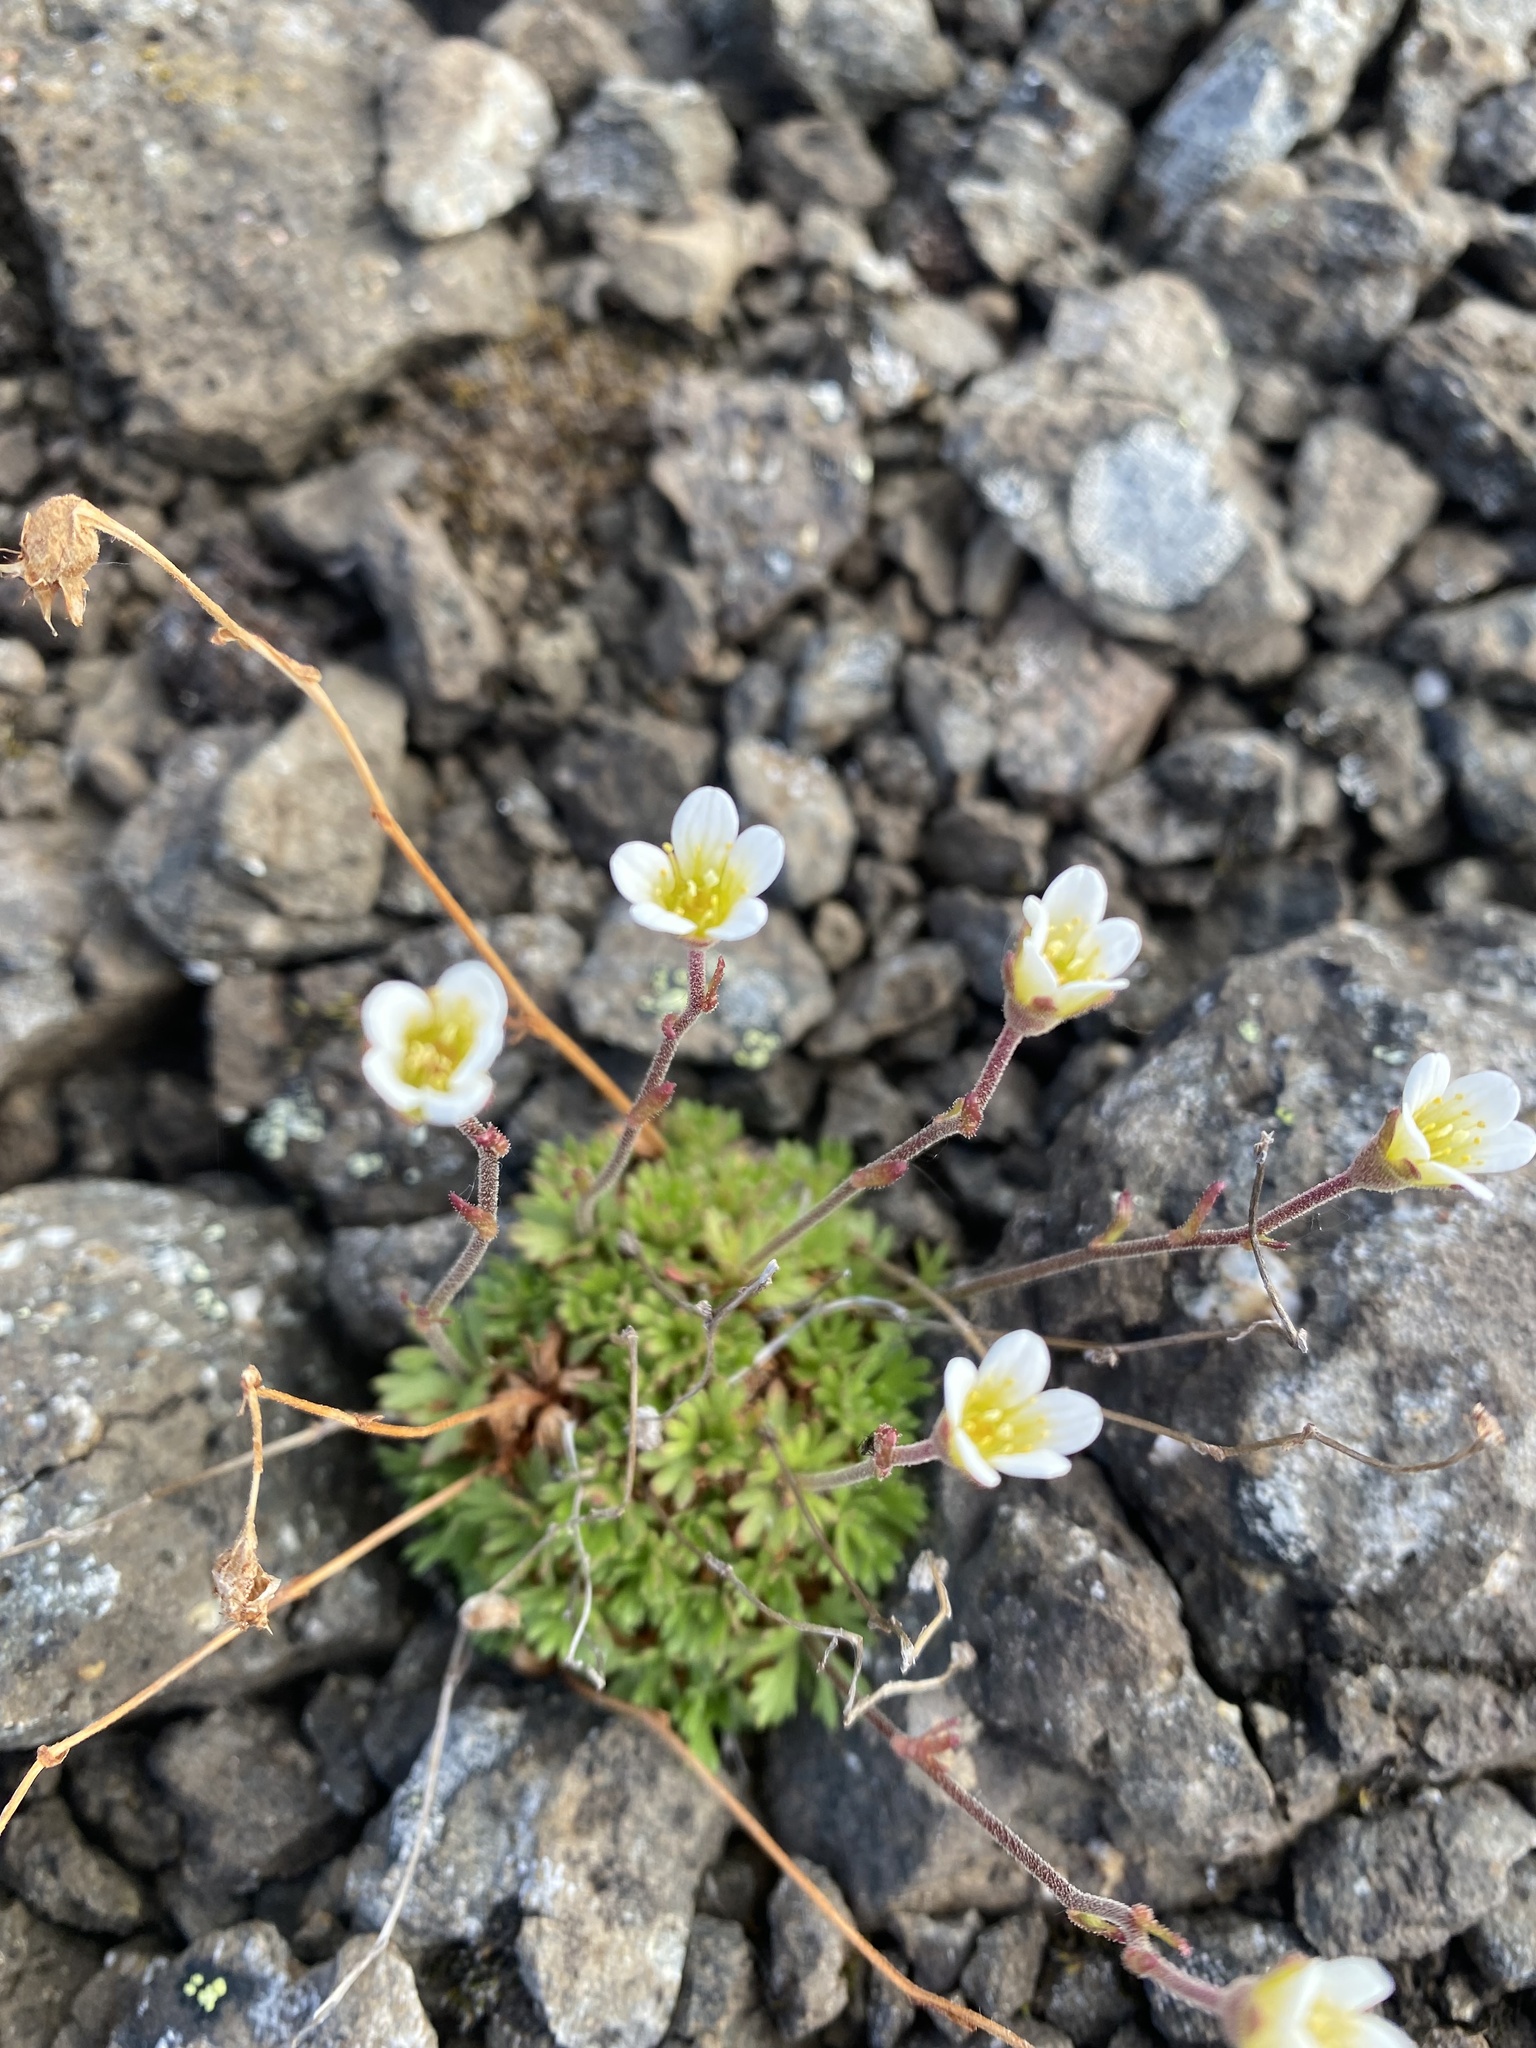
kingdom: Plantae
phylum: Tracheophyta
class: Magnoliopsida
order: Saxifragales
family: Saxifragaceae
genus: Saxifraga
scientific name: Saxifraga cespitosa
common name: Tufted saxifrage
